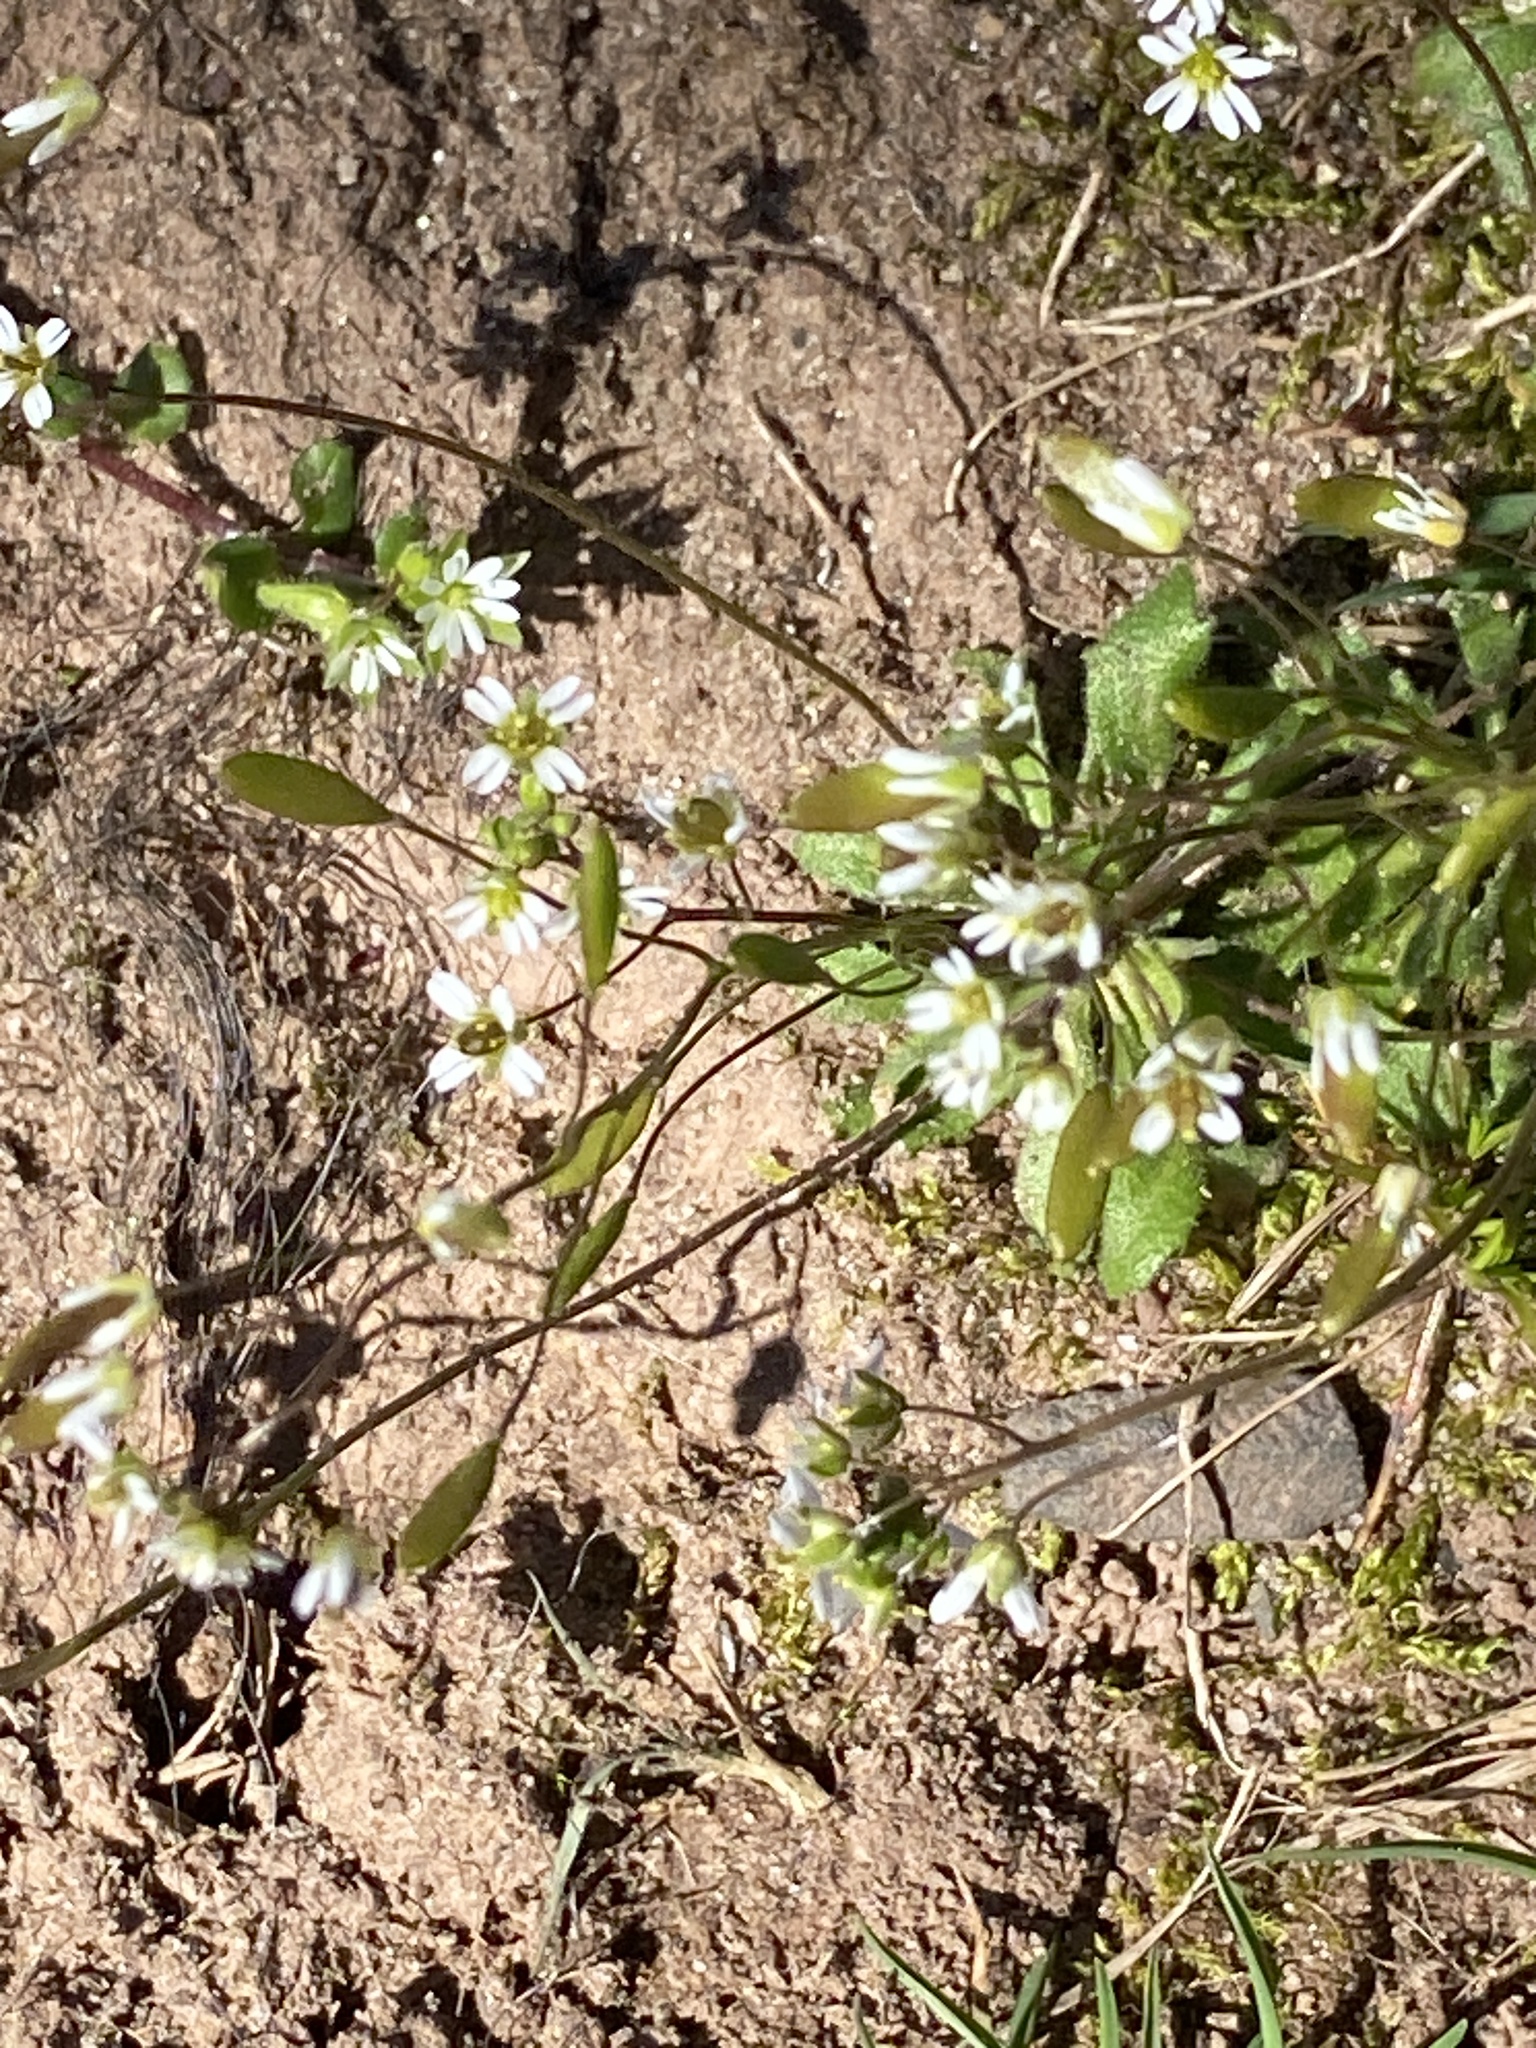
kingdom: Plantae
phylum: Tracheophyta
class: Magnoliopsida
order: Brassicales
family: Brassicaceae
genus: Draba
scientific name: Draba verna
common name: Spring draba
